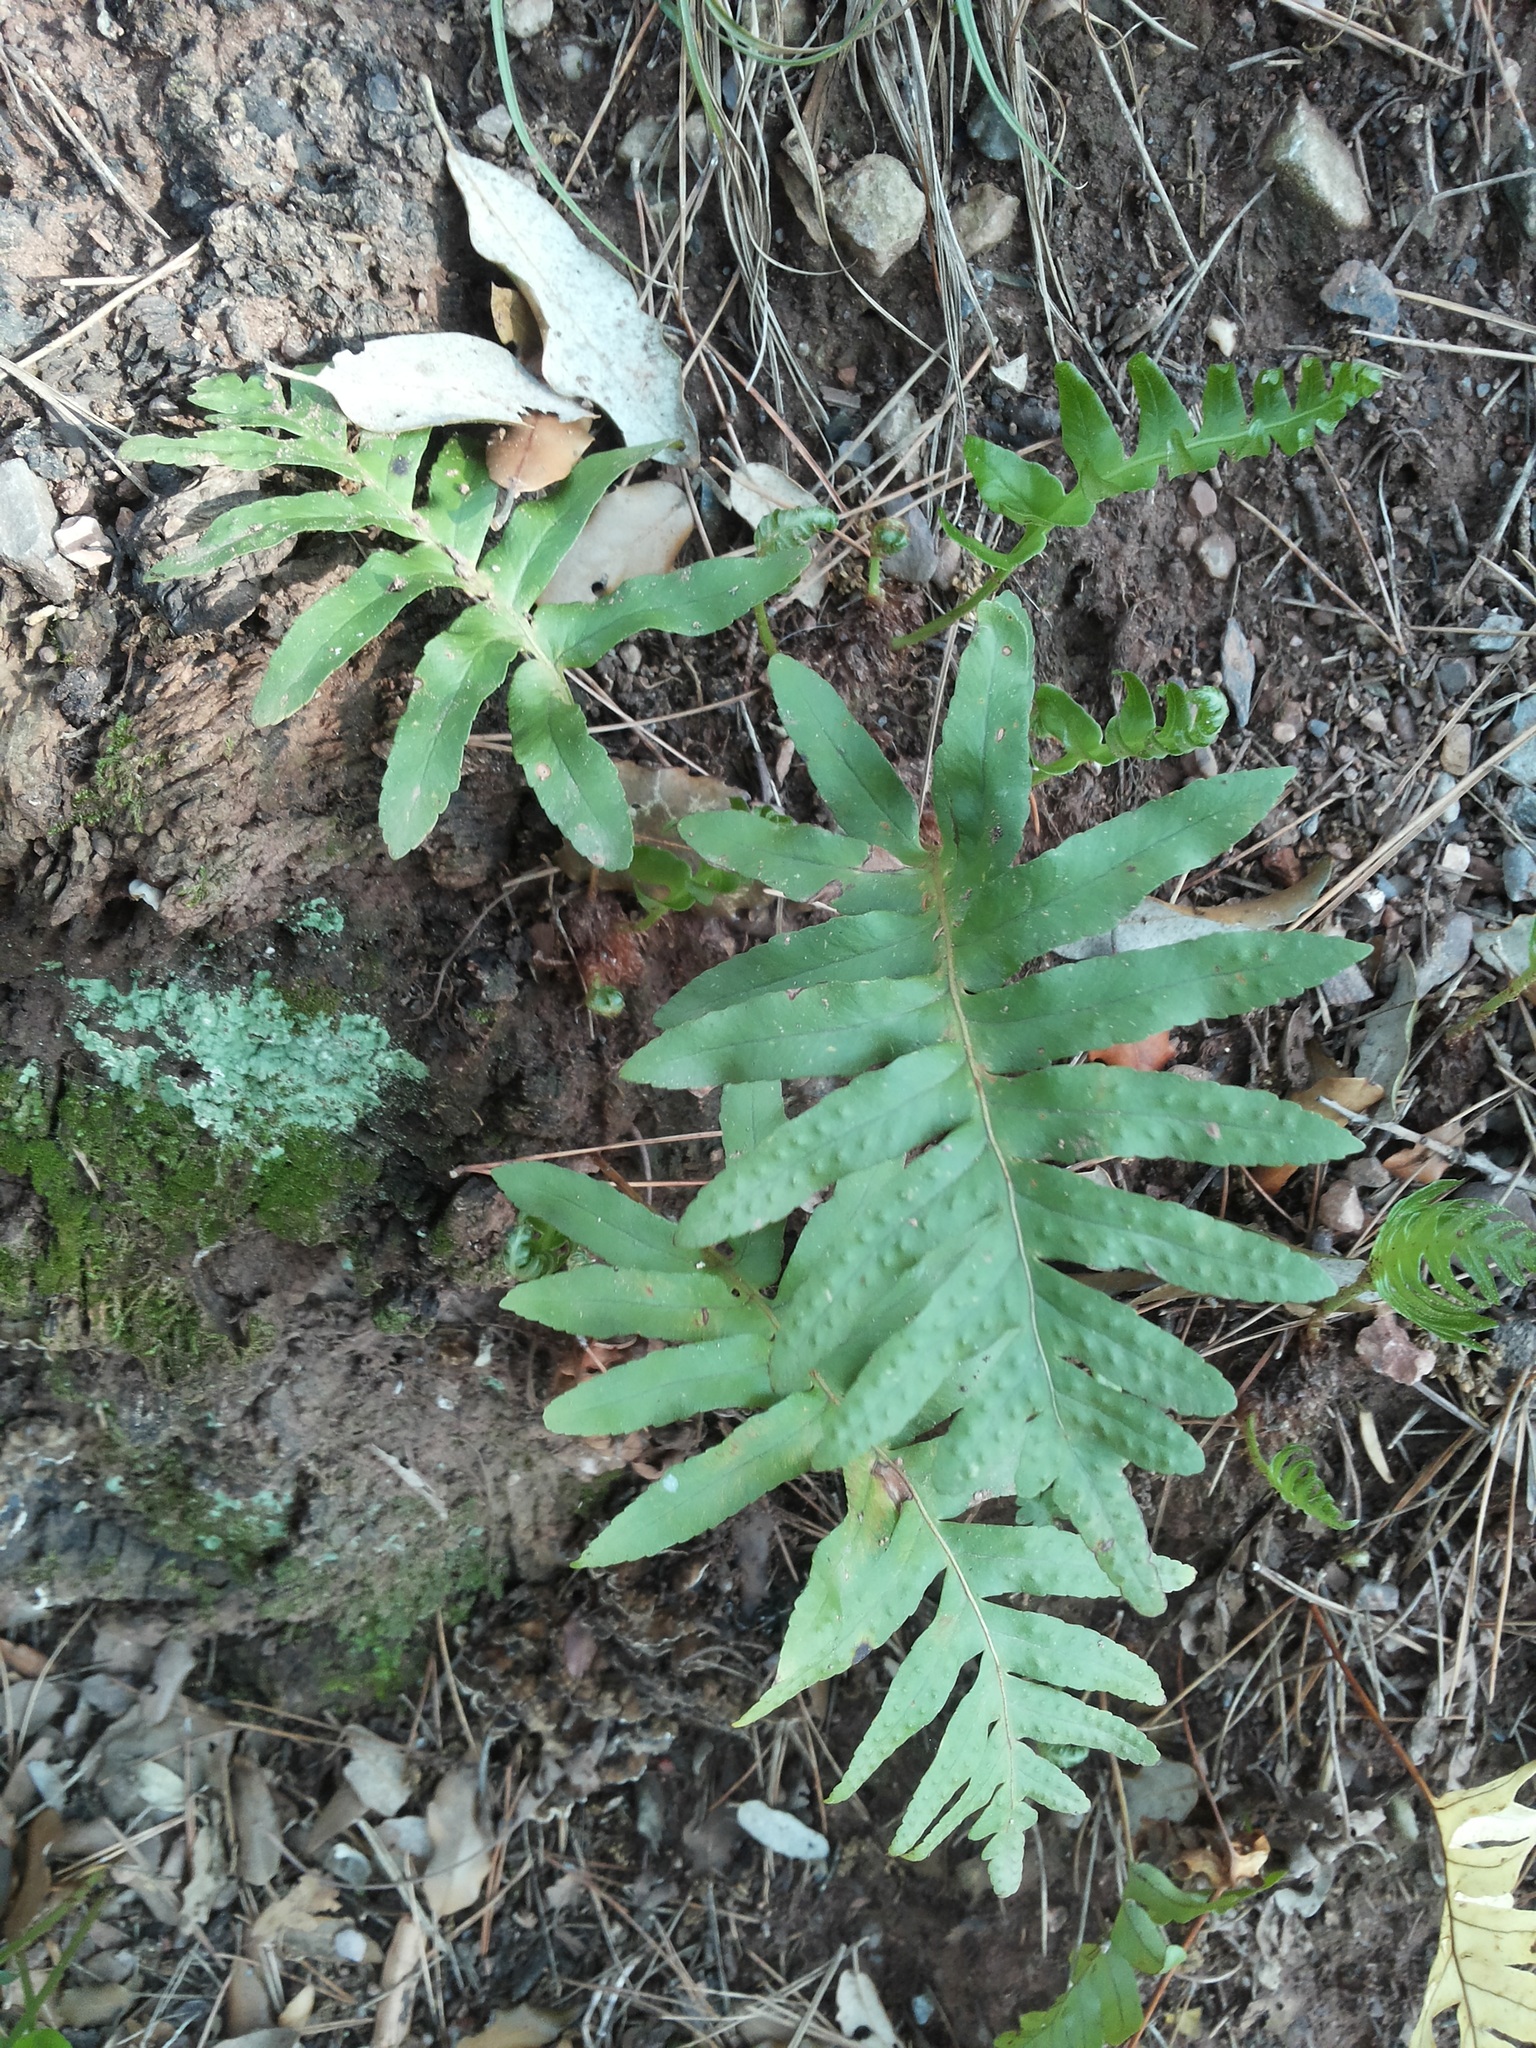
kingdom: Plantae
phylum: Tracheophyta
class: Polypodiopsida
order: Polypodiales
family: Polypodiaceae
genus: Polypodium
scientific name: Polypodium cambricum
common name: Southern polypody
